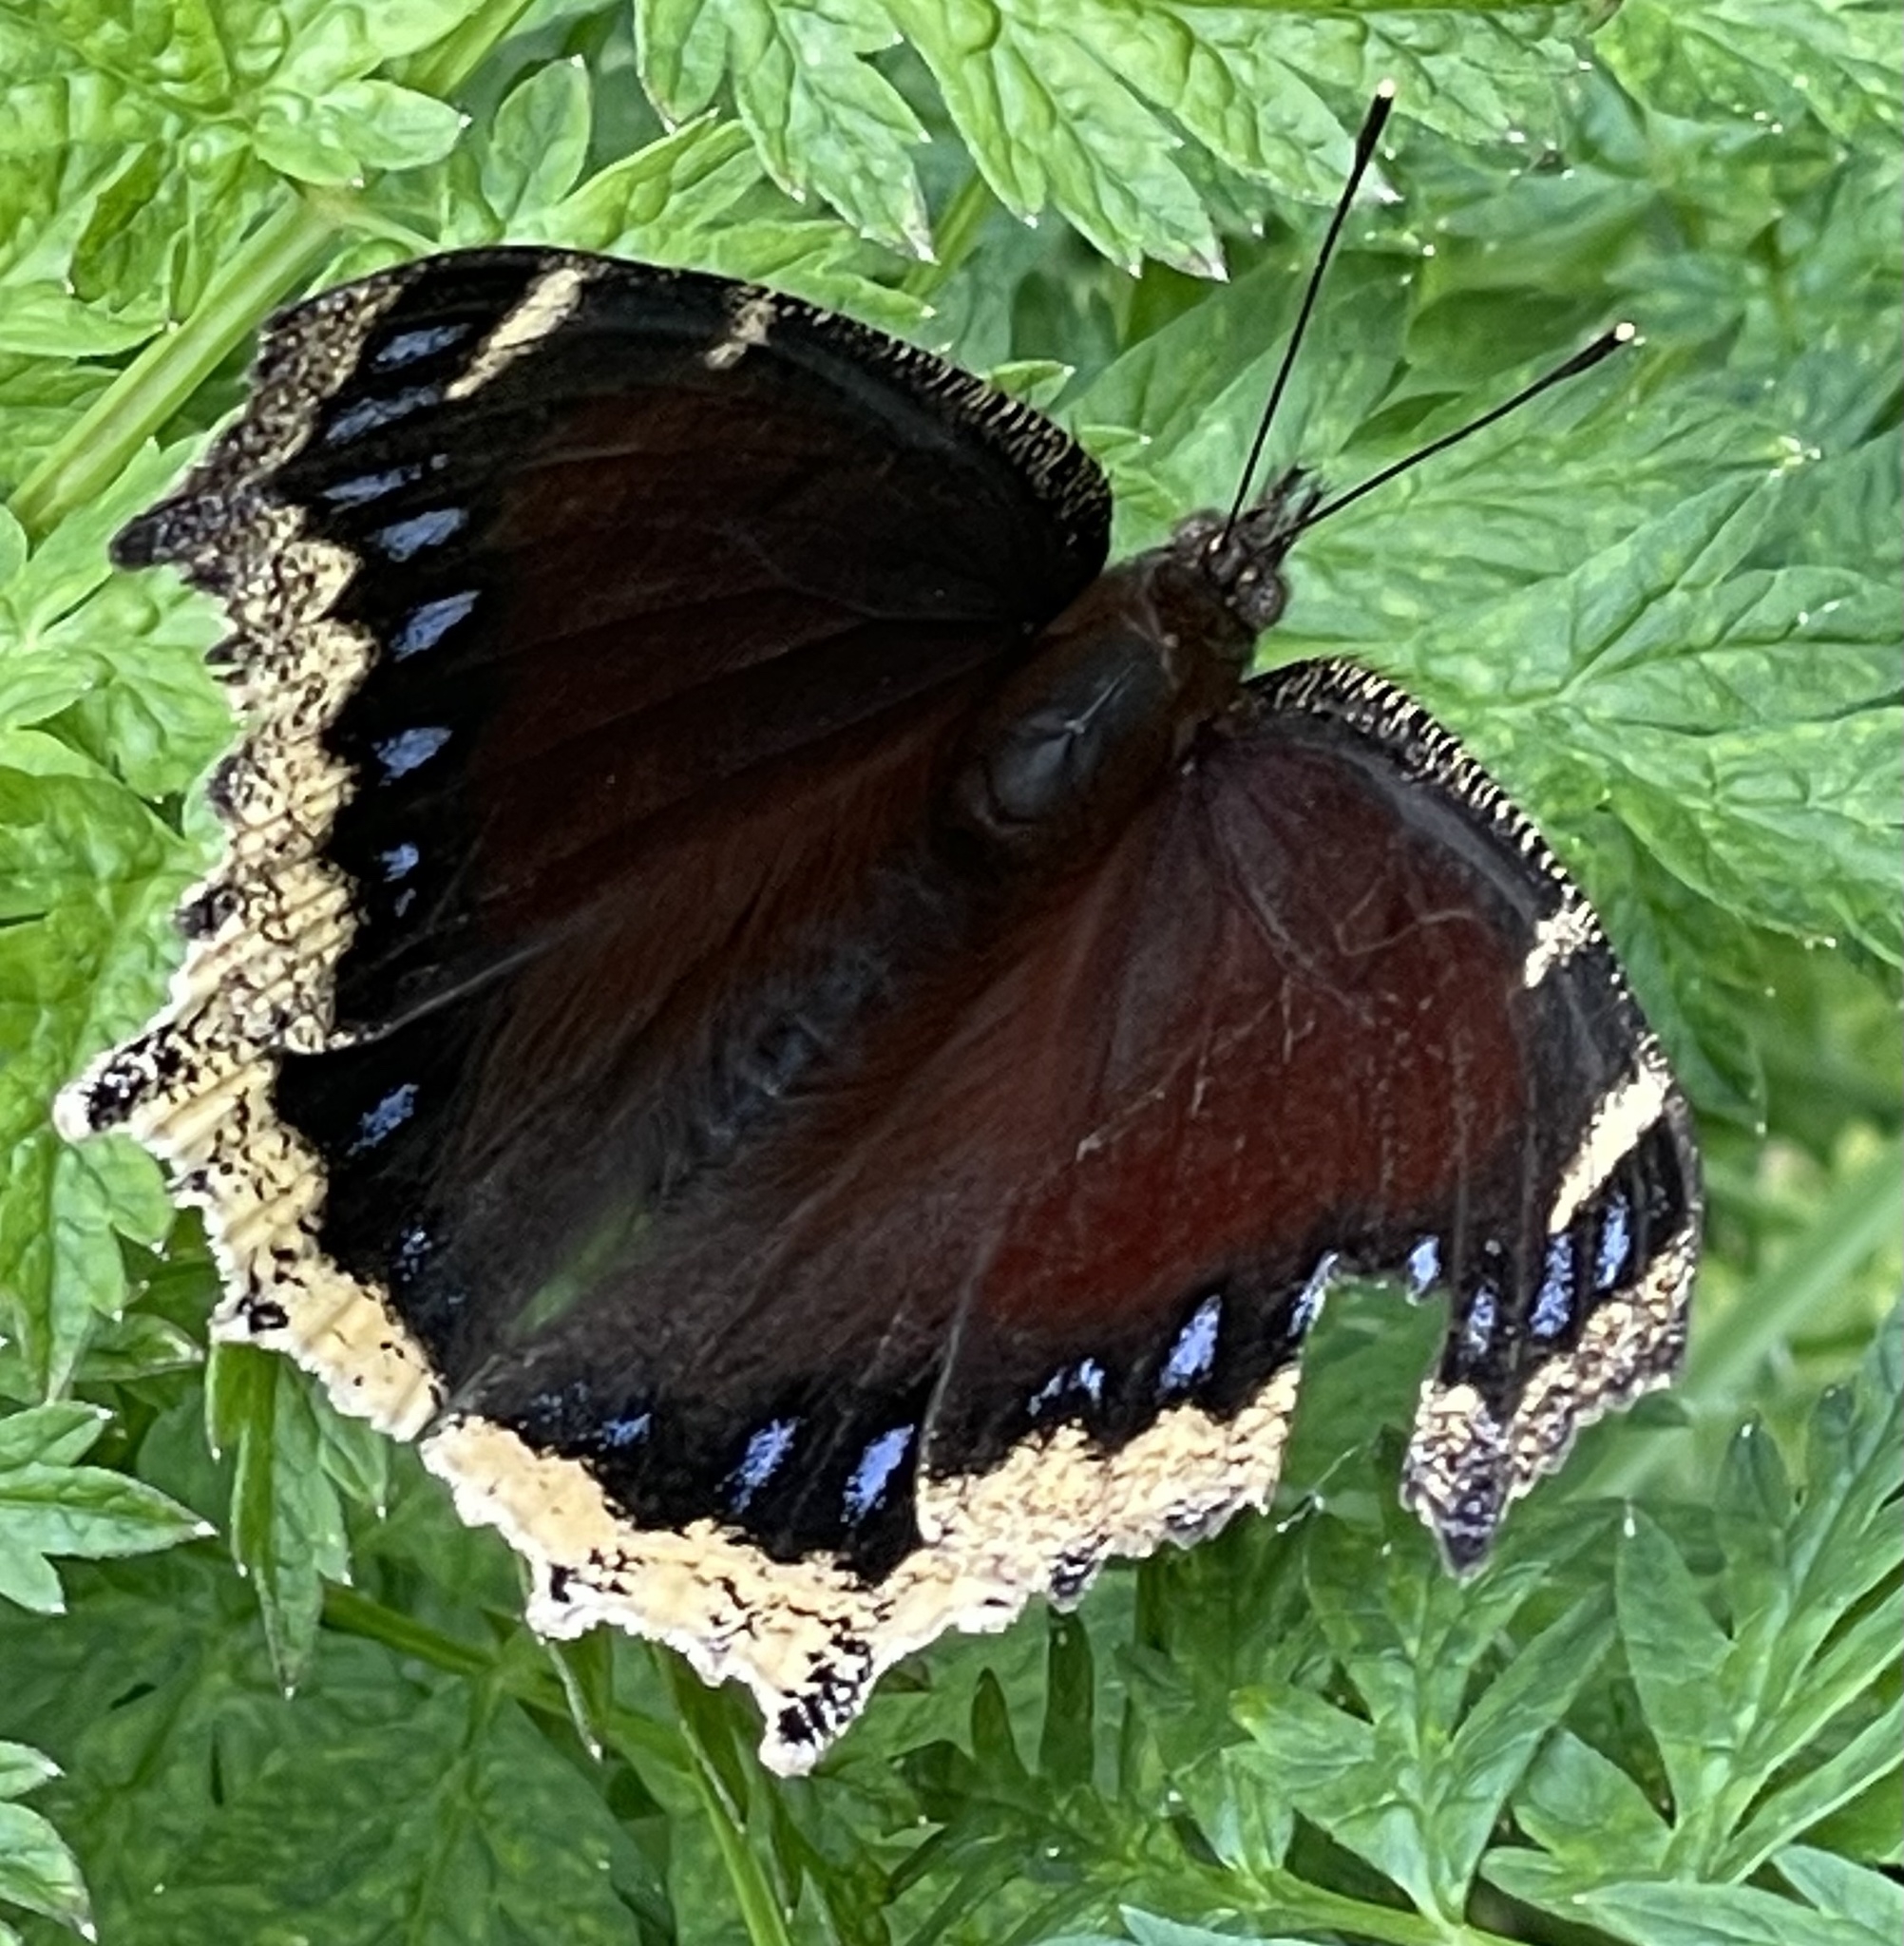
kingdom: Animalia
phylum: Arthropoda
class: Insecta
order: Lepidoptera
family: Nymphalidae
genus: Nymphalis
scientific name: Nymphalis antiopa
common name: Camberwell beauty
